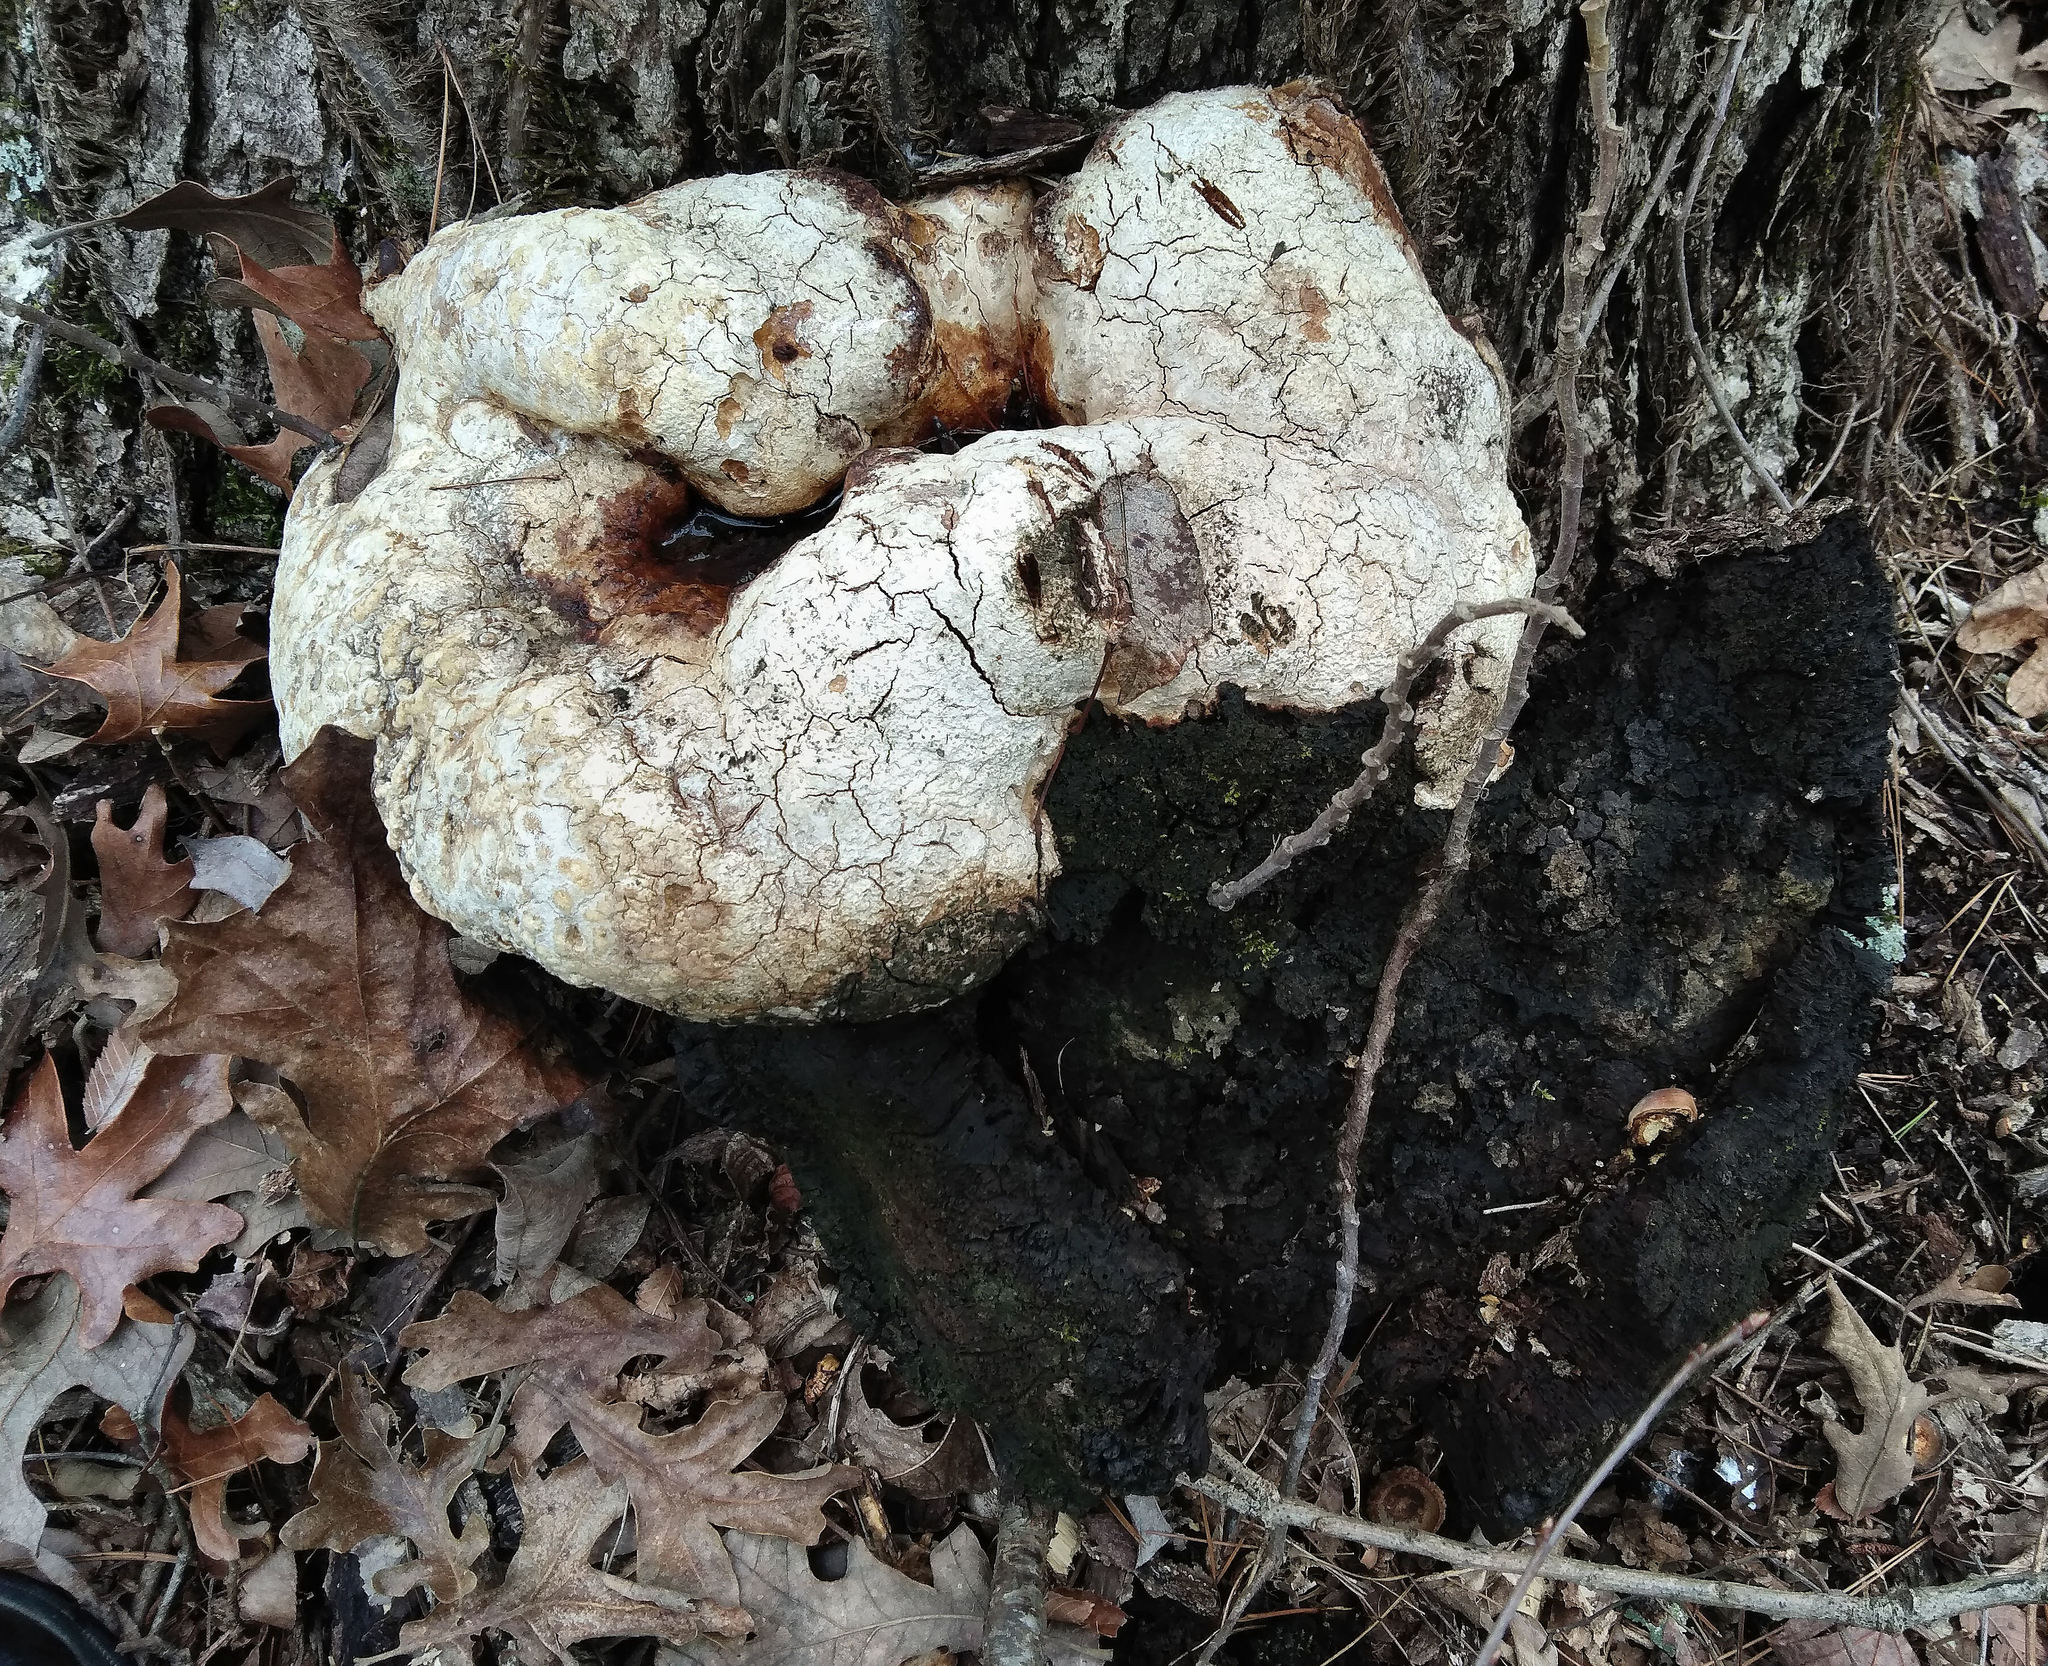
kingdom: Fungi
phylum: Basidiomycota
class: Agaricomycetes
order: Hymenochaetales
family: Hymenochaetaceae
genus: Pseudoinonotus
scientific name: Pseudoinonotus dryadeus
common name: Oak bracket
